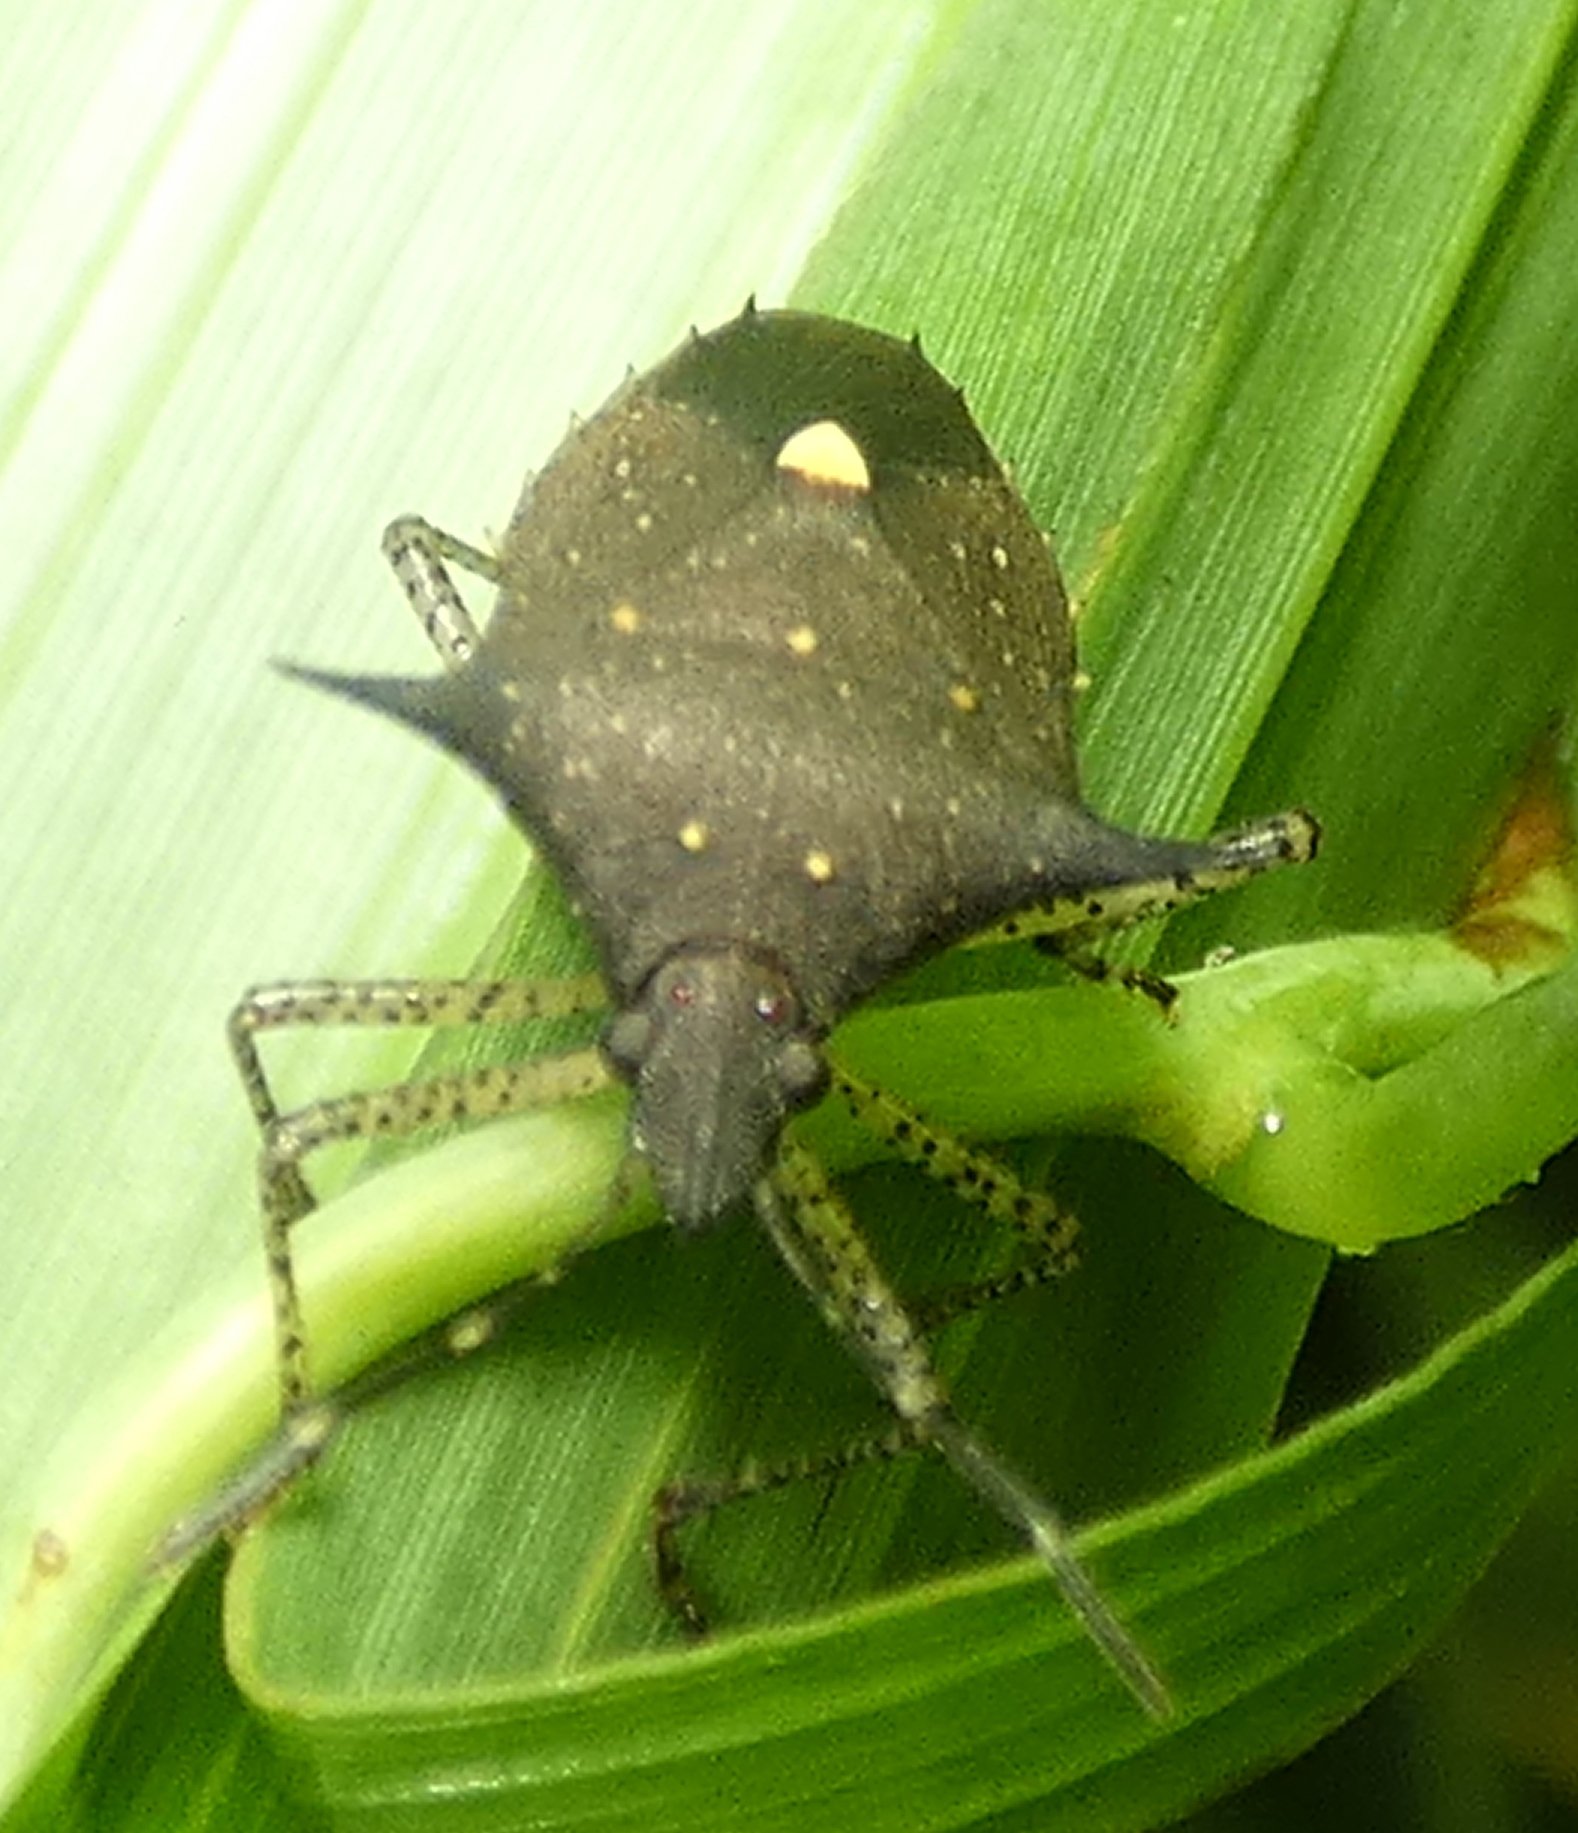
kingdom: Animalia
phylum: Arthropoda
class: Insecta
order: Hemiptera
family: Pentatomidae
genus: Proxys
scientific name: Proxys albopunctulatus
